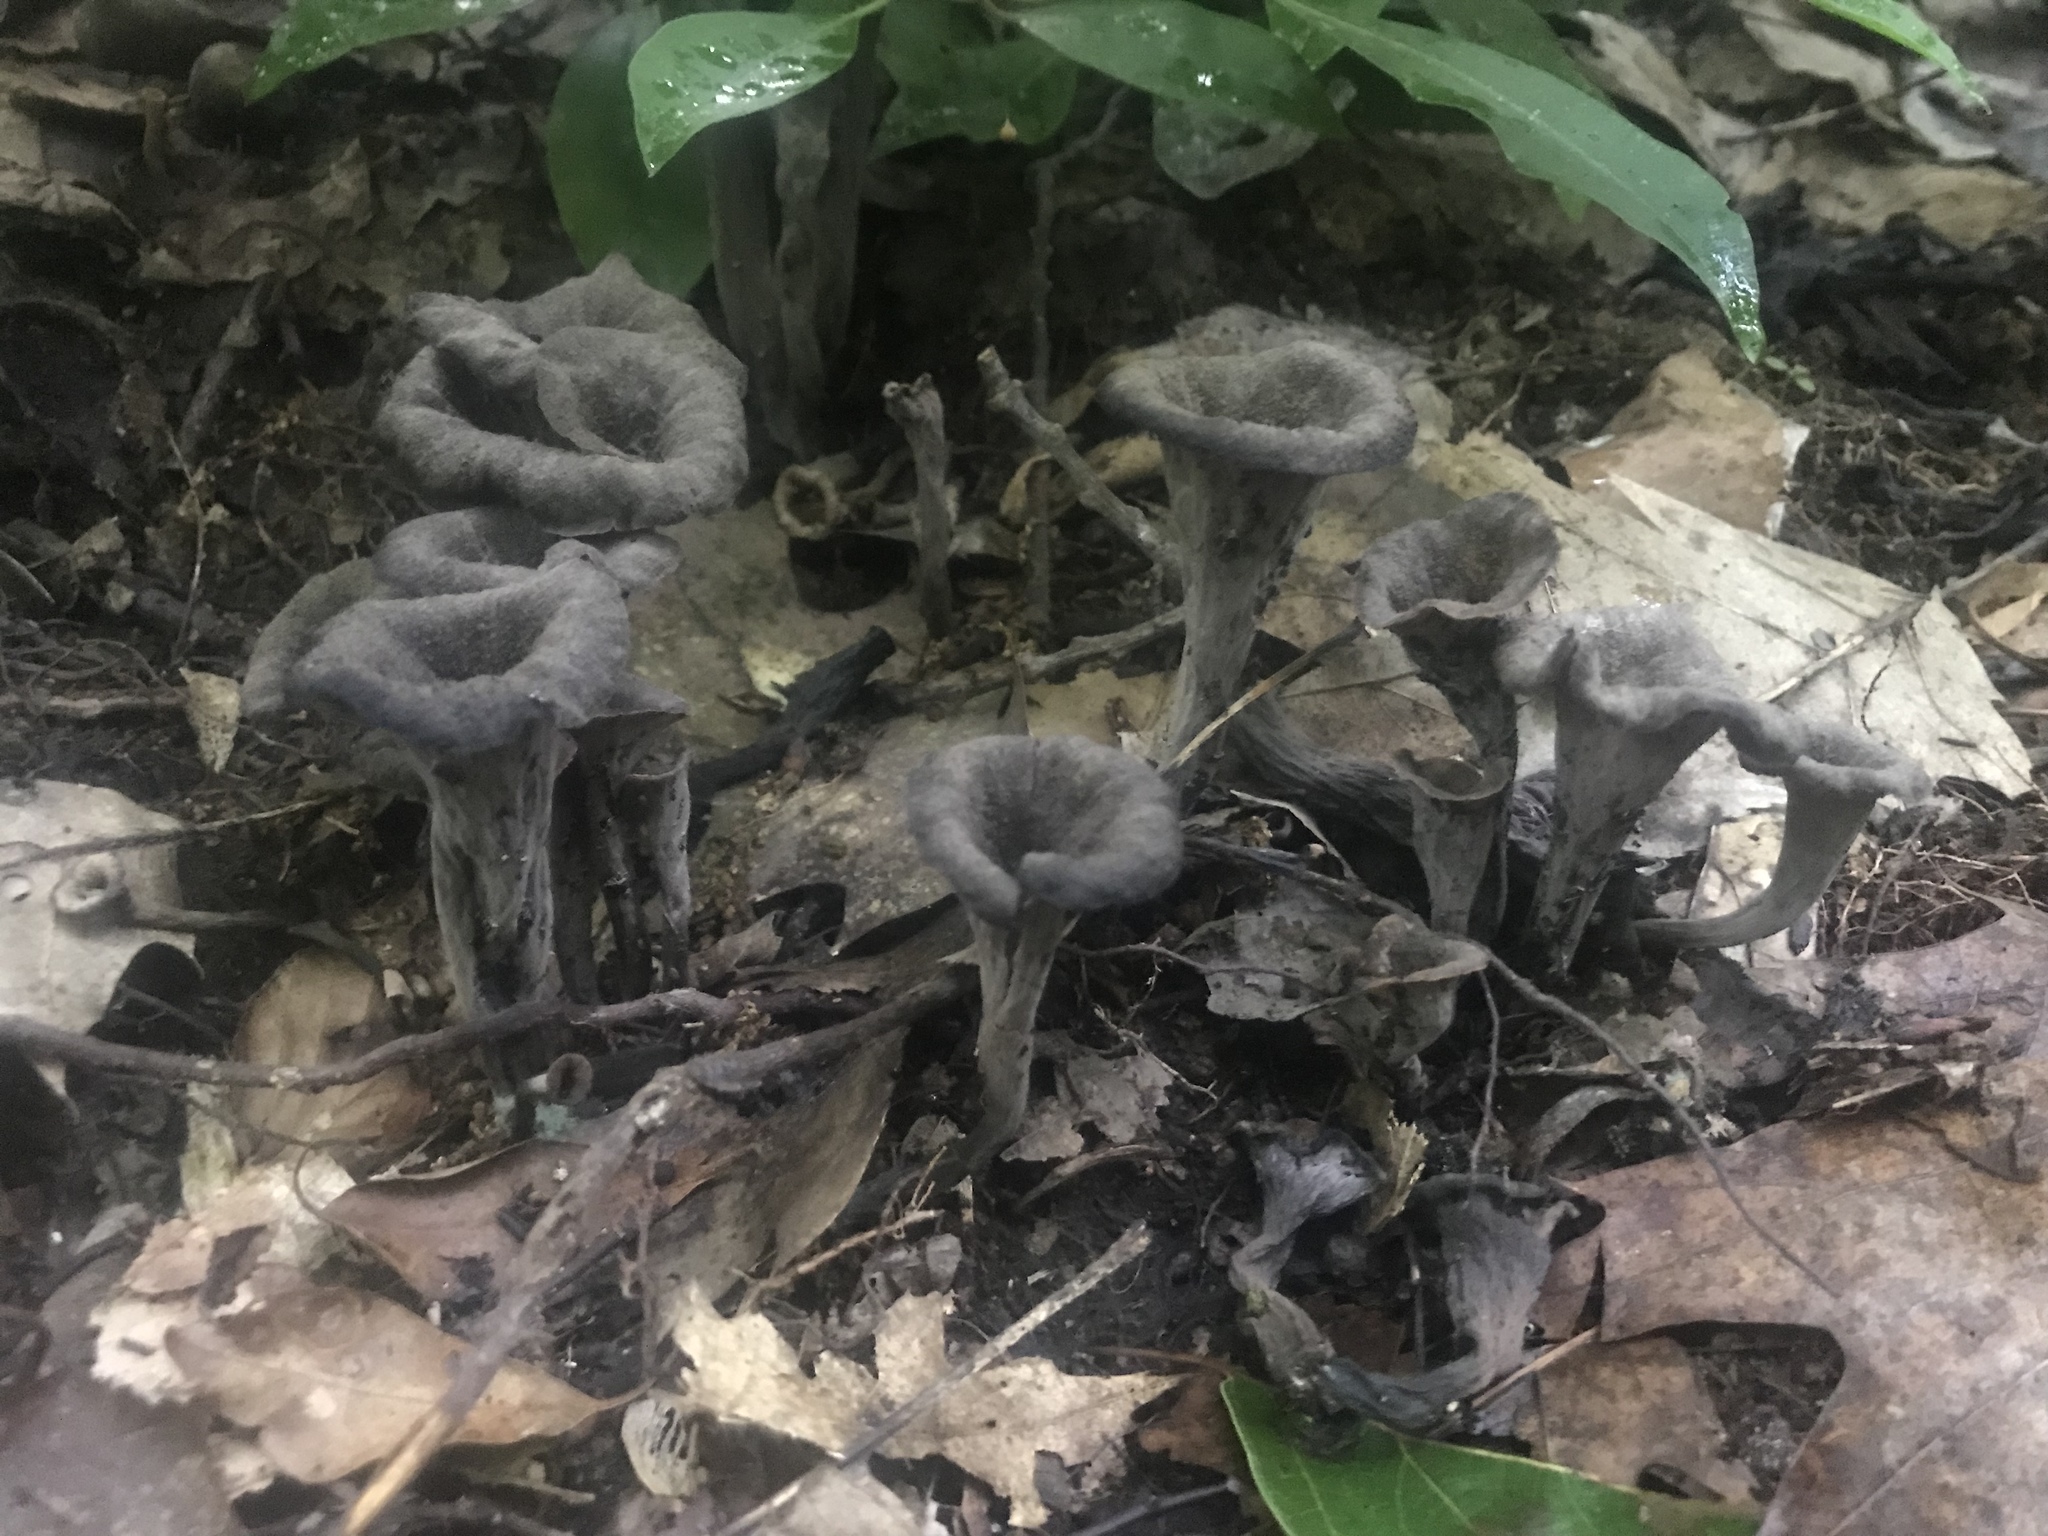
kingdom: Fungi
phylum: Basidiomycota
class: Agaricomycetes
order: Cantharellales
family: Hydnaceae
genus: Craterellus
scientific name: Craterellus cornucopioides
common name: Horn of plenty
